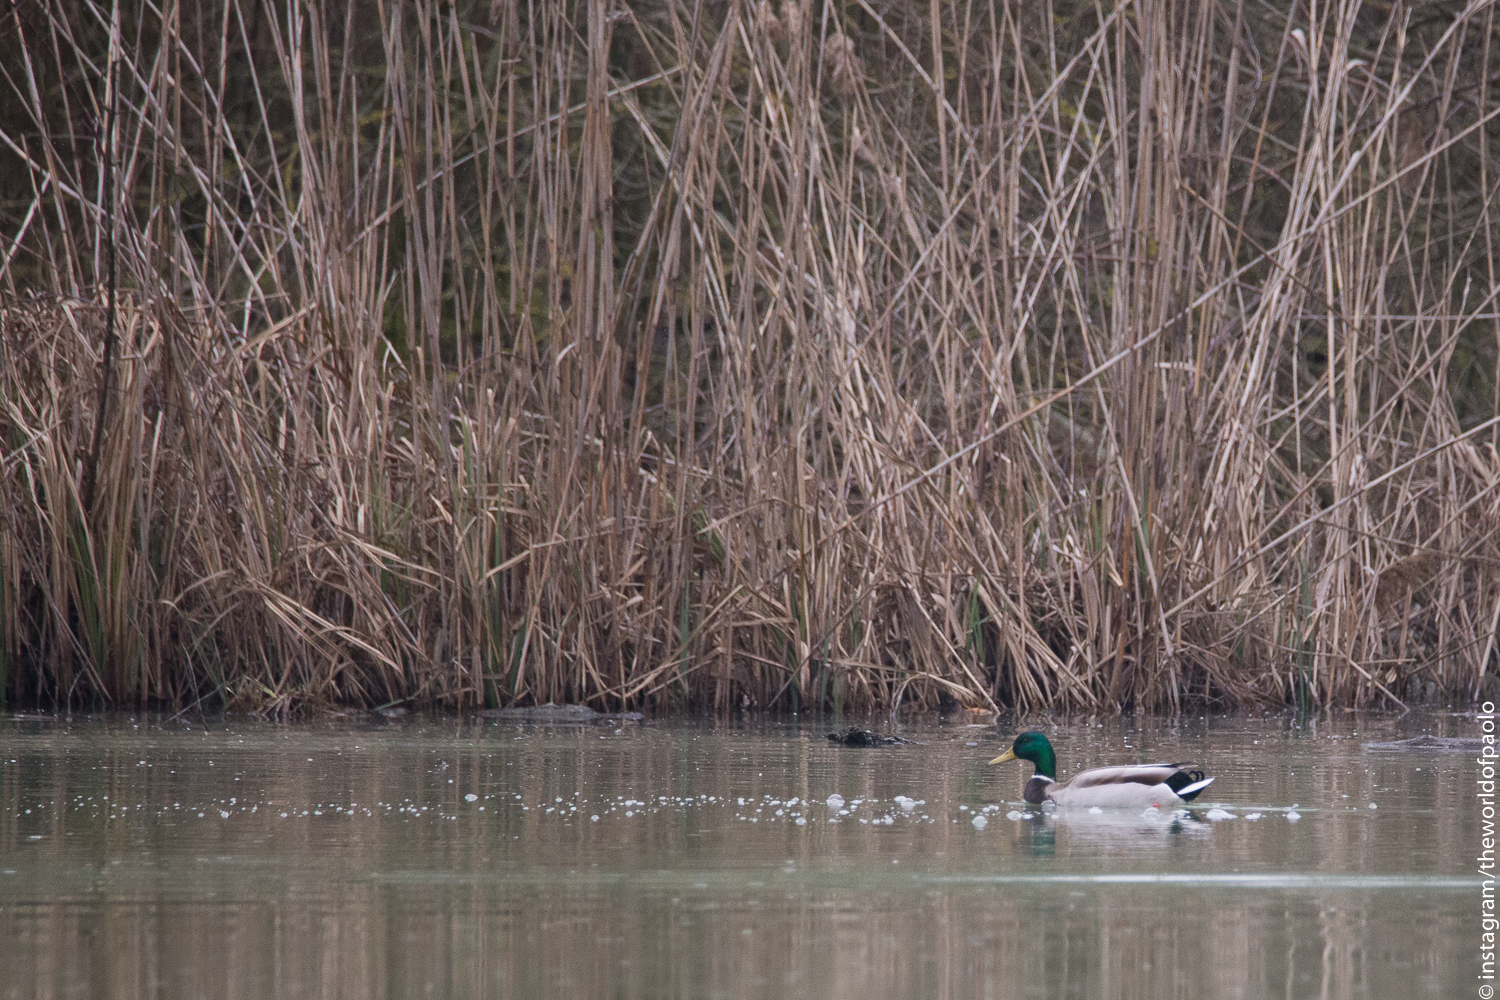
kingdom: Animalia
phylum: Chordata
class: Aves
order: Anseriformes
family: Anatidae
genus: Anas
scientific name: Anas platyrhynchos
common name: Mallard
